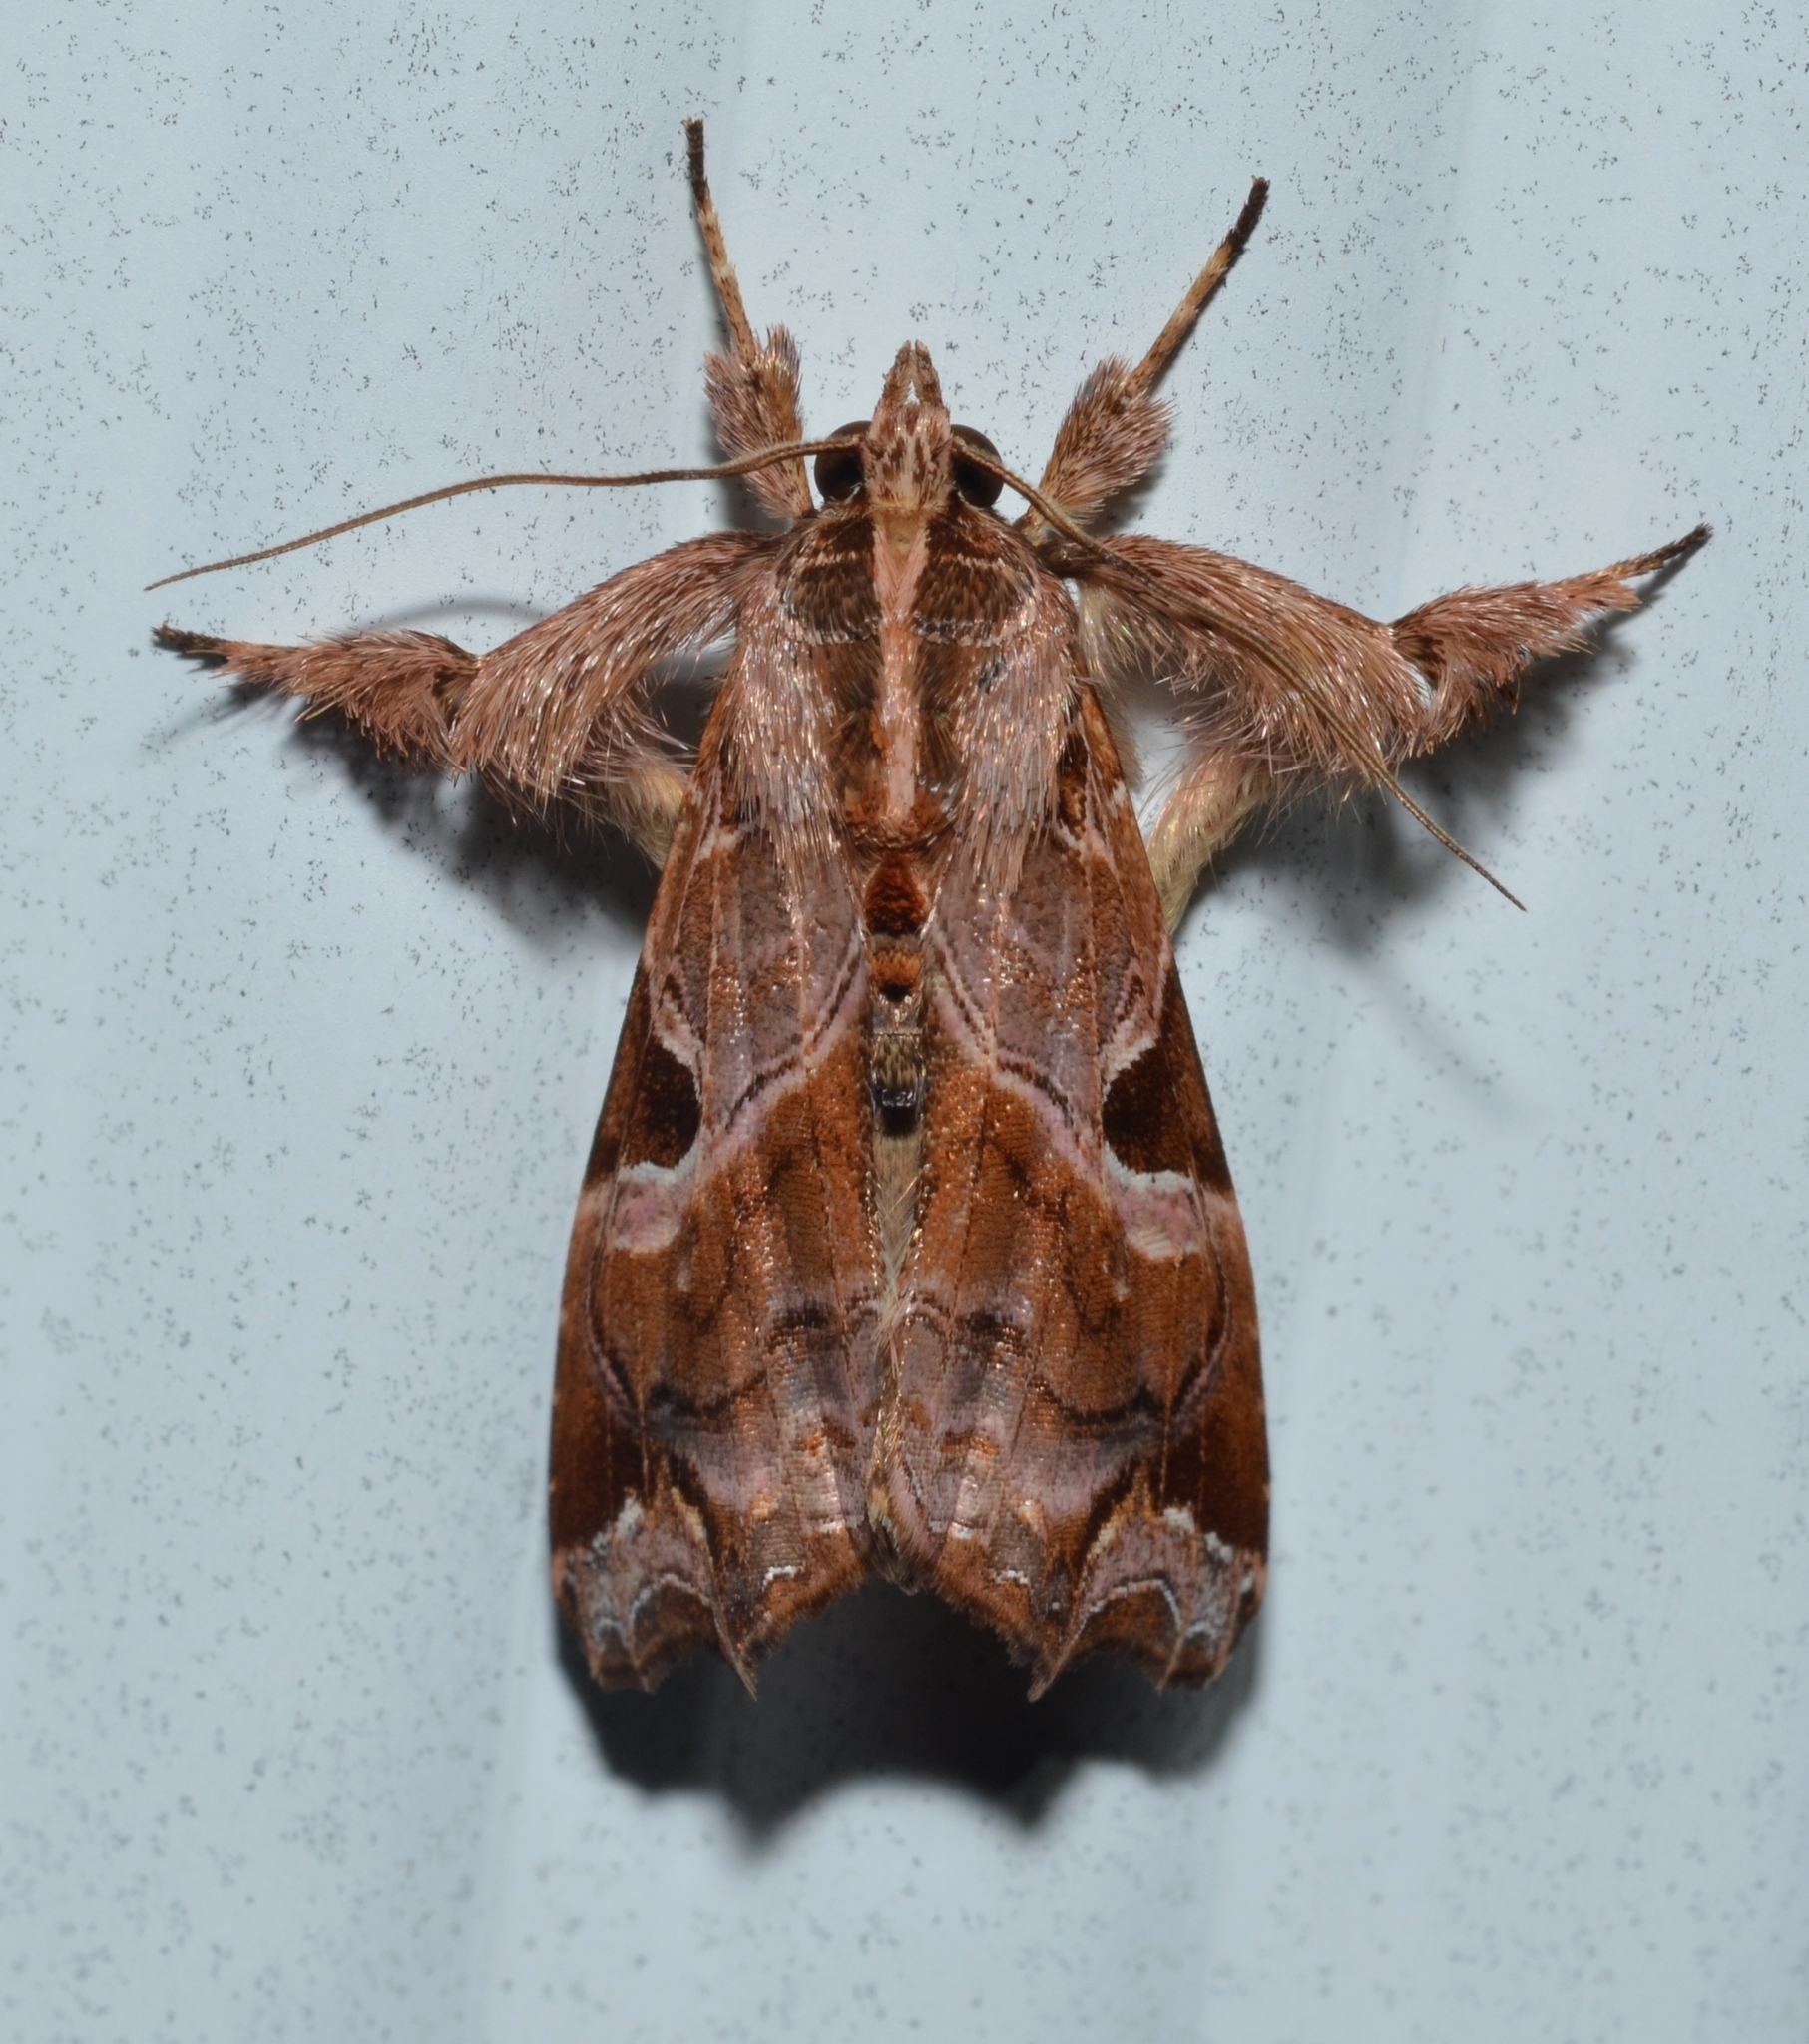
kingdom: Animalia
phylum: Arthropoda
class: Insecta
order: Lepidoptera
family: Noctuidae
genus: Callopistria
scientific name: Callopistria floridensis
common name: Florida fern moth
